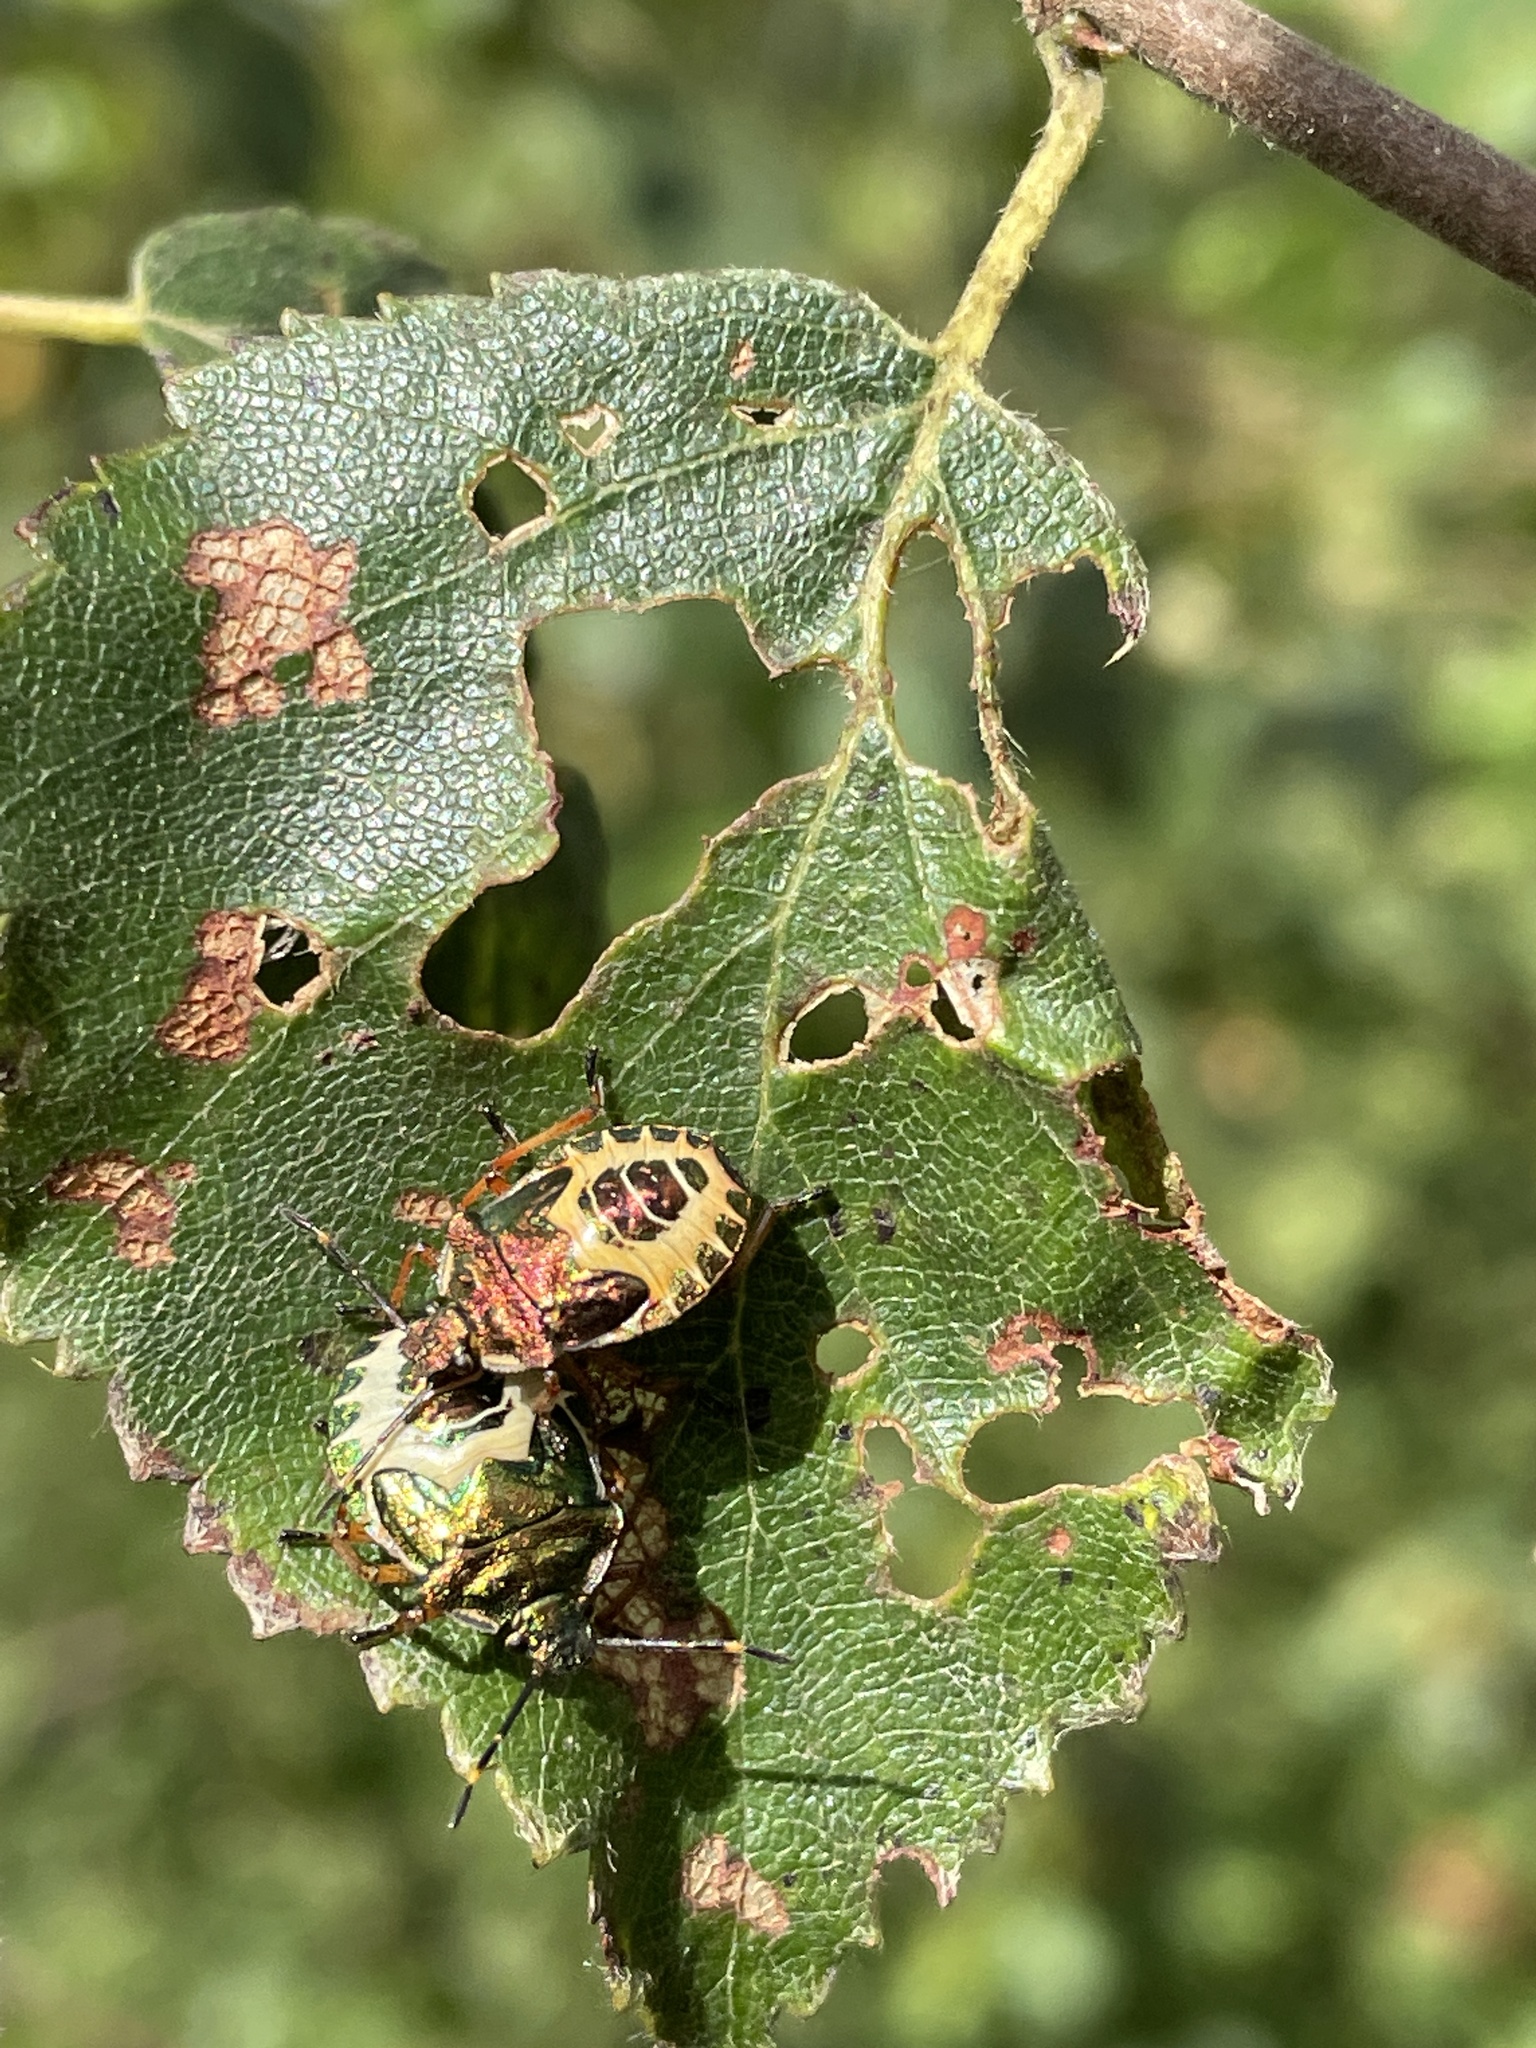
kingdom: Animalia
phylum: Arthropoda
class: Insecta
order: Hemiptera
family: Pentatomidae
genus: Troilus
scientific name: Troilus luridus
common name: Bronze shieldbug
